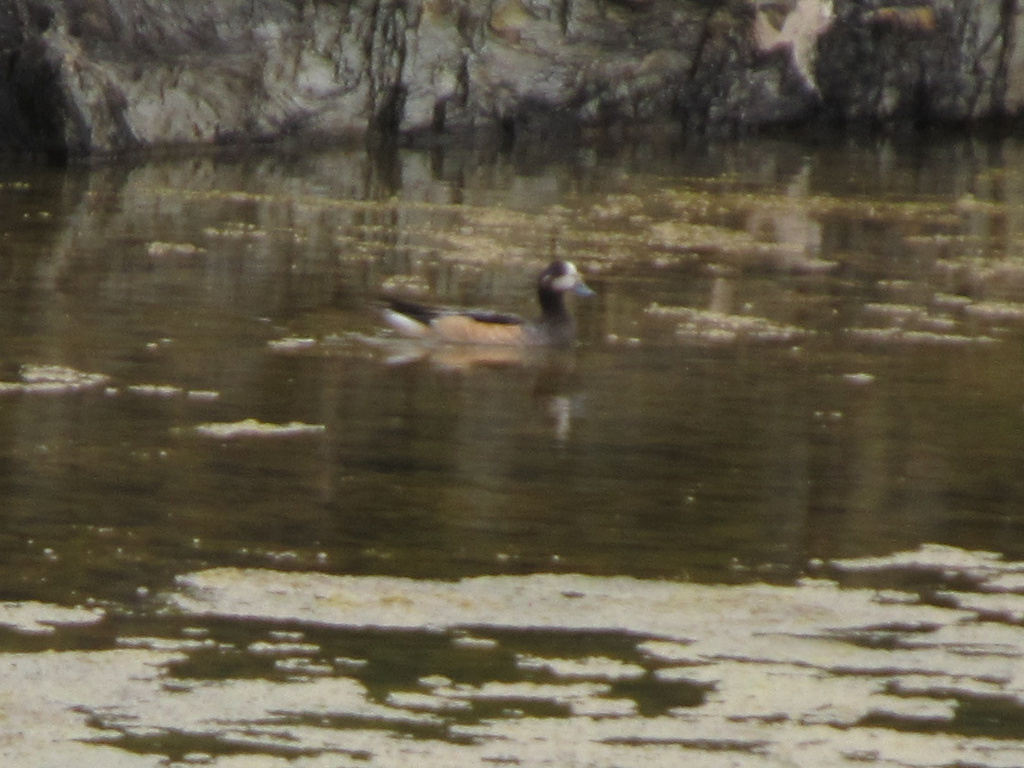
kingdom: Animalia
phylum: Chordata
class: Aves
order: Anseriformes
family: Anatidae
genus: Mareca
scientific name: Mareca sibilatrix
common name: Chiloe wigeon
